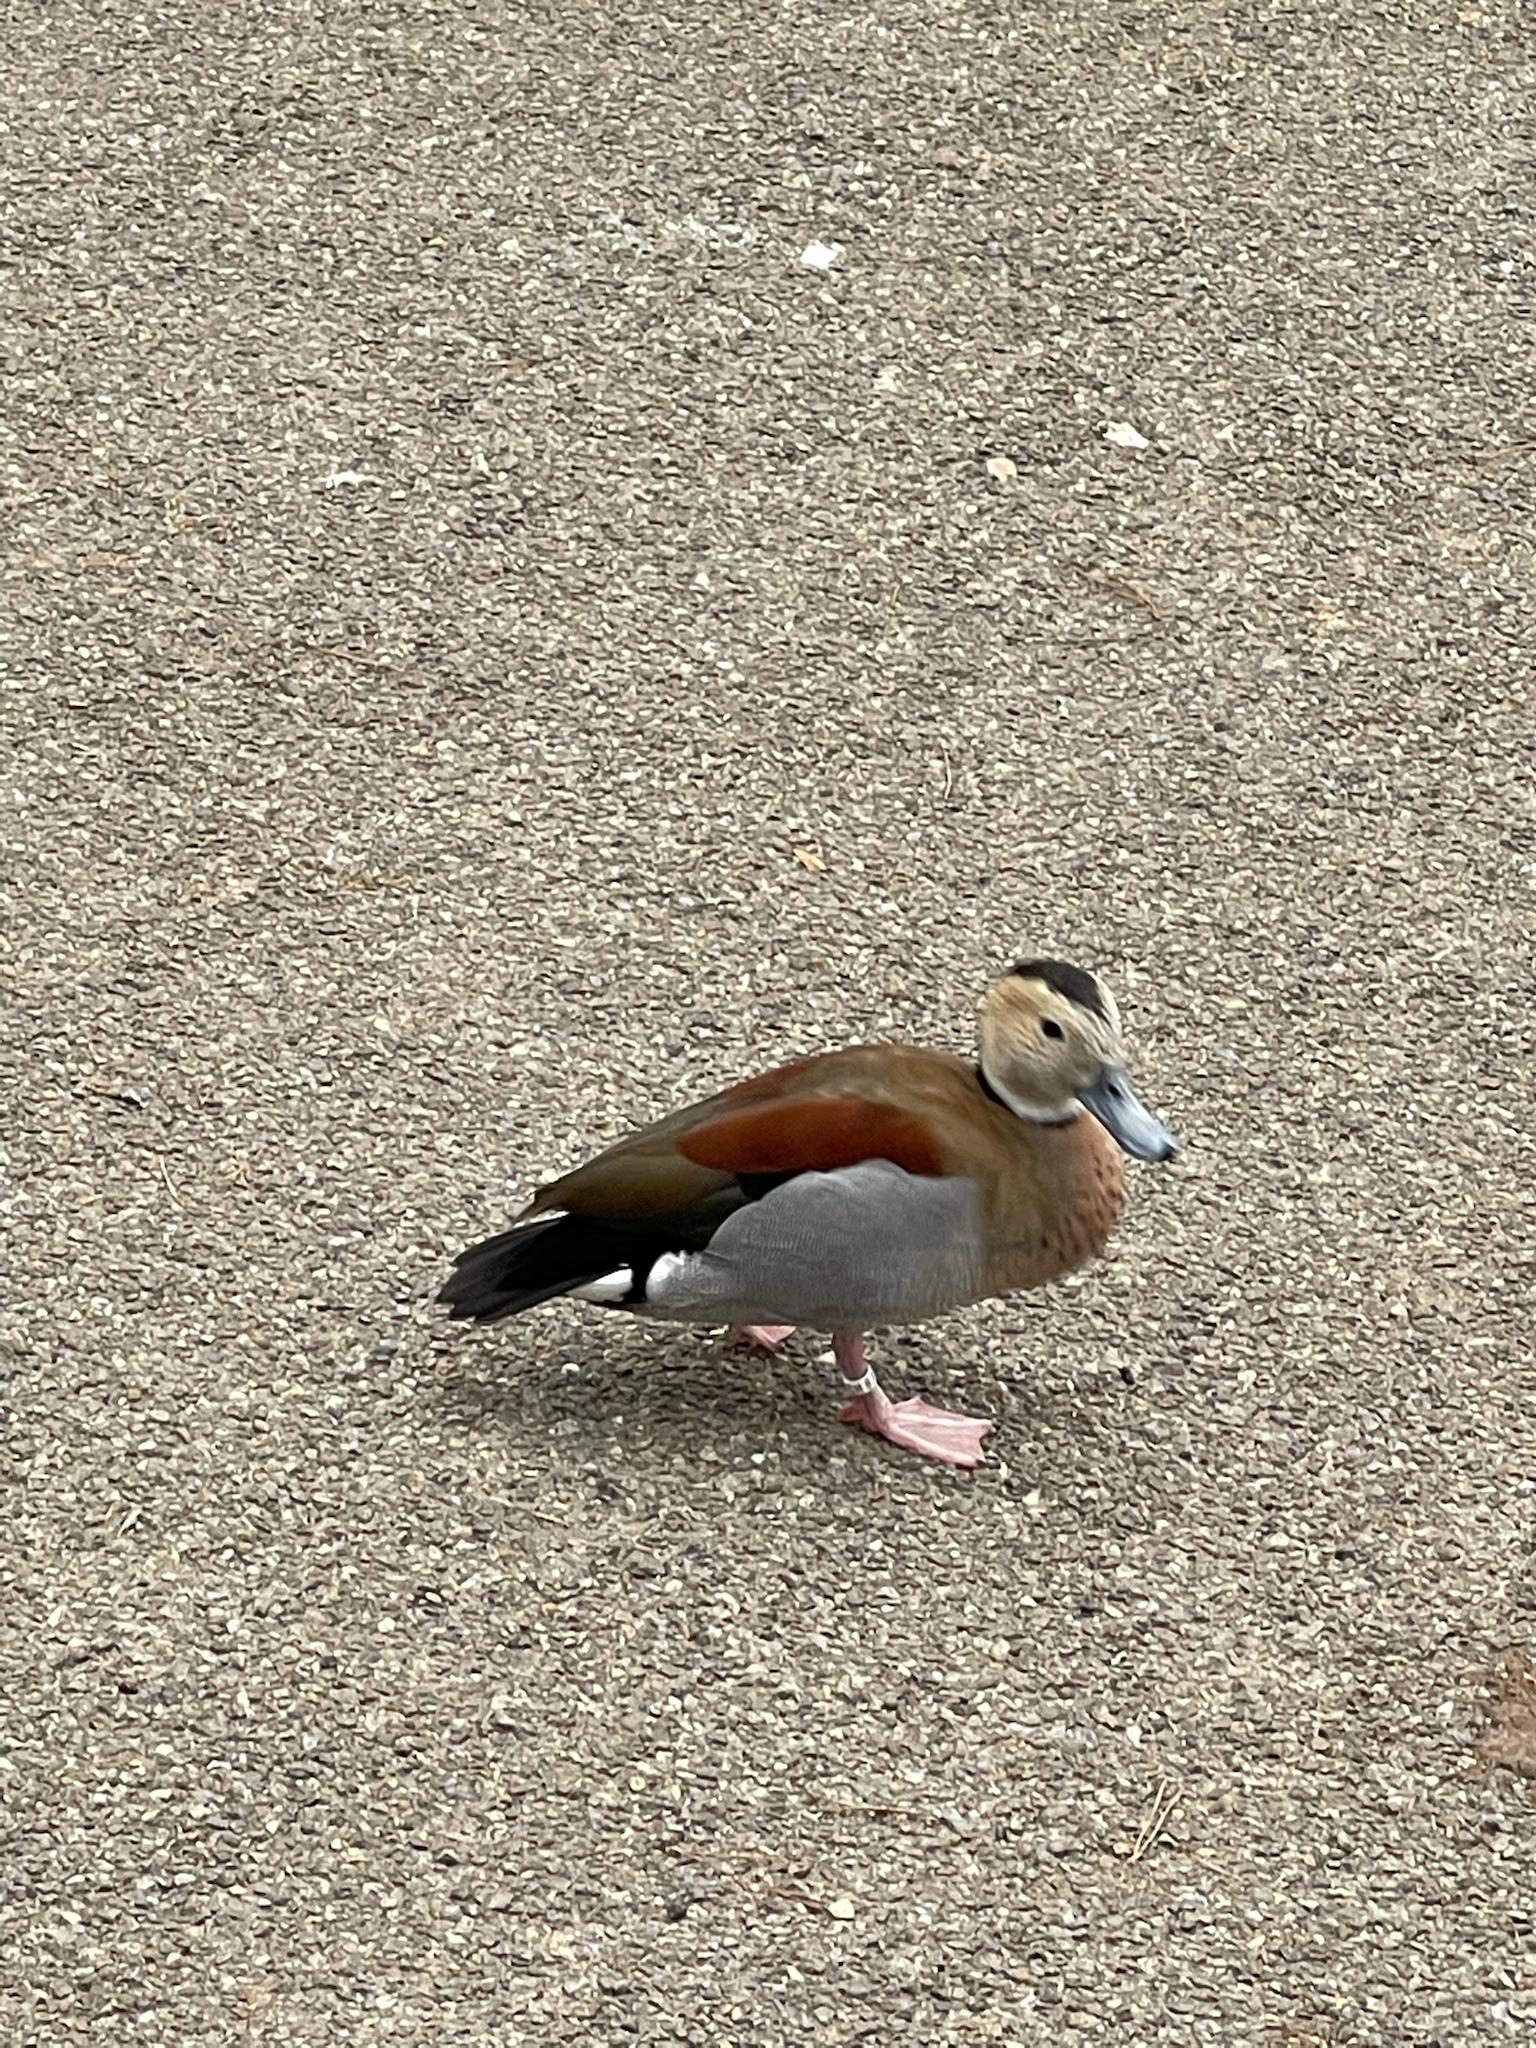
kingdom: Animalia
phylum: Chordata
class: Aves
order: Anseriformes
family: Anatidae
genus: Callonetta
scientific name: Callonetta leucophrys
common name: Ringed teal
